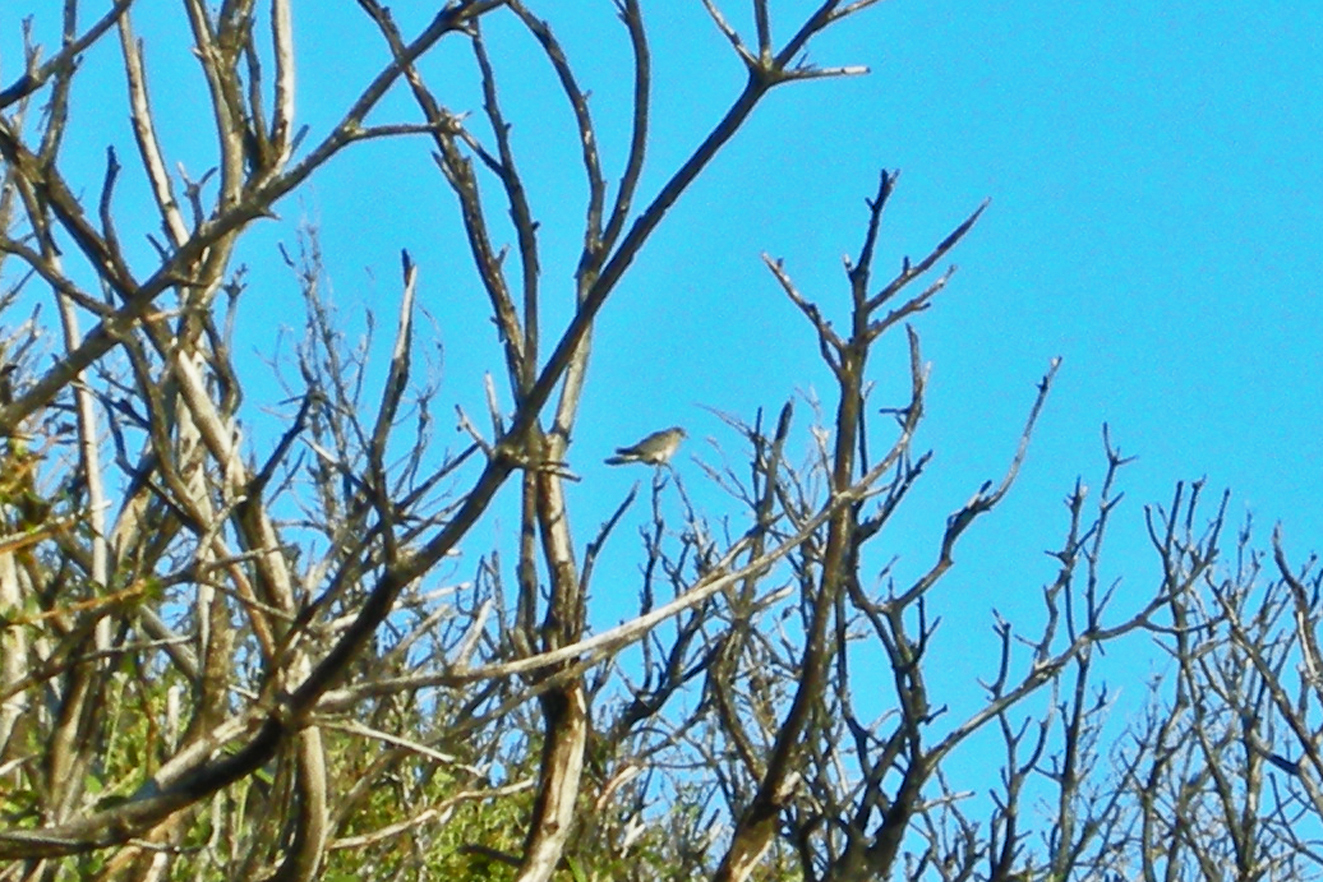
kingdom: Animalia
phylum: Chordata
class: Aves
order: Columbiformes
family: Columbidae
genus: Patagioenas
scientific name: Patagioenas fasciata
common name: Band-tailed pigeon
